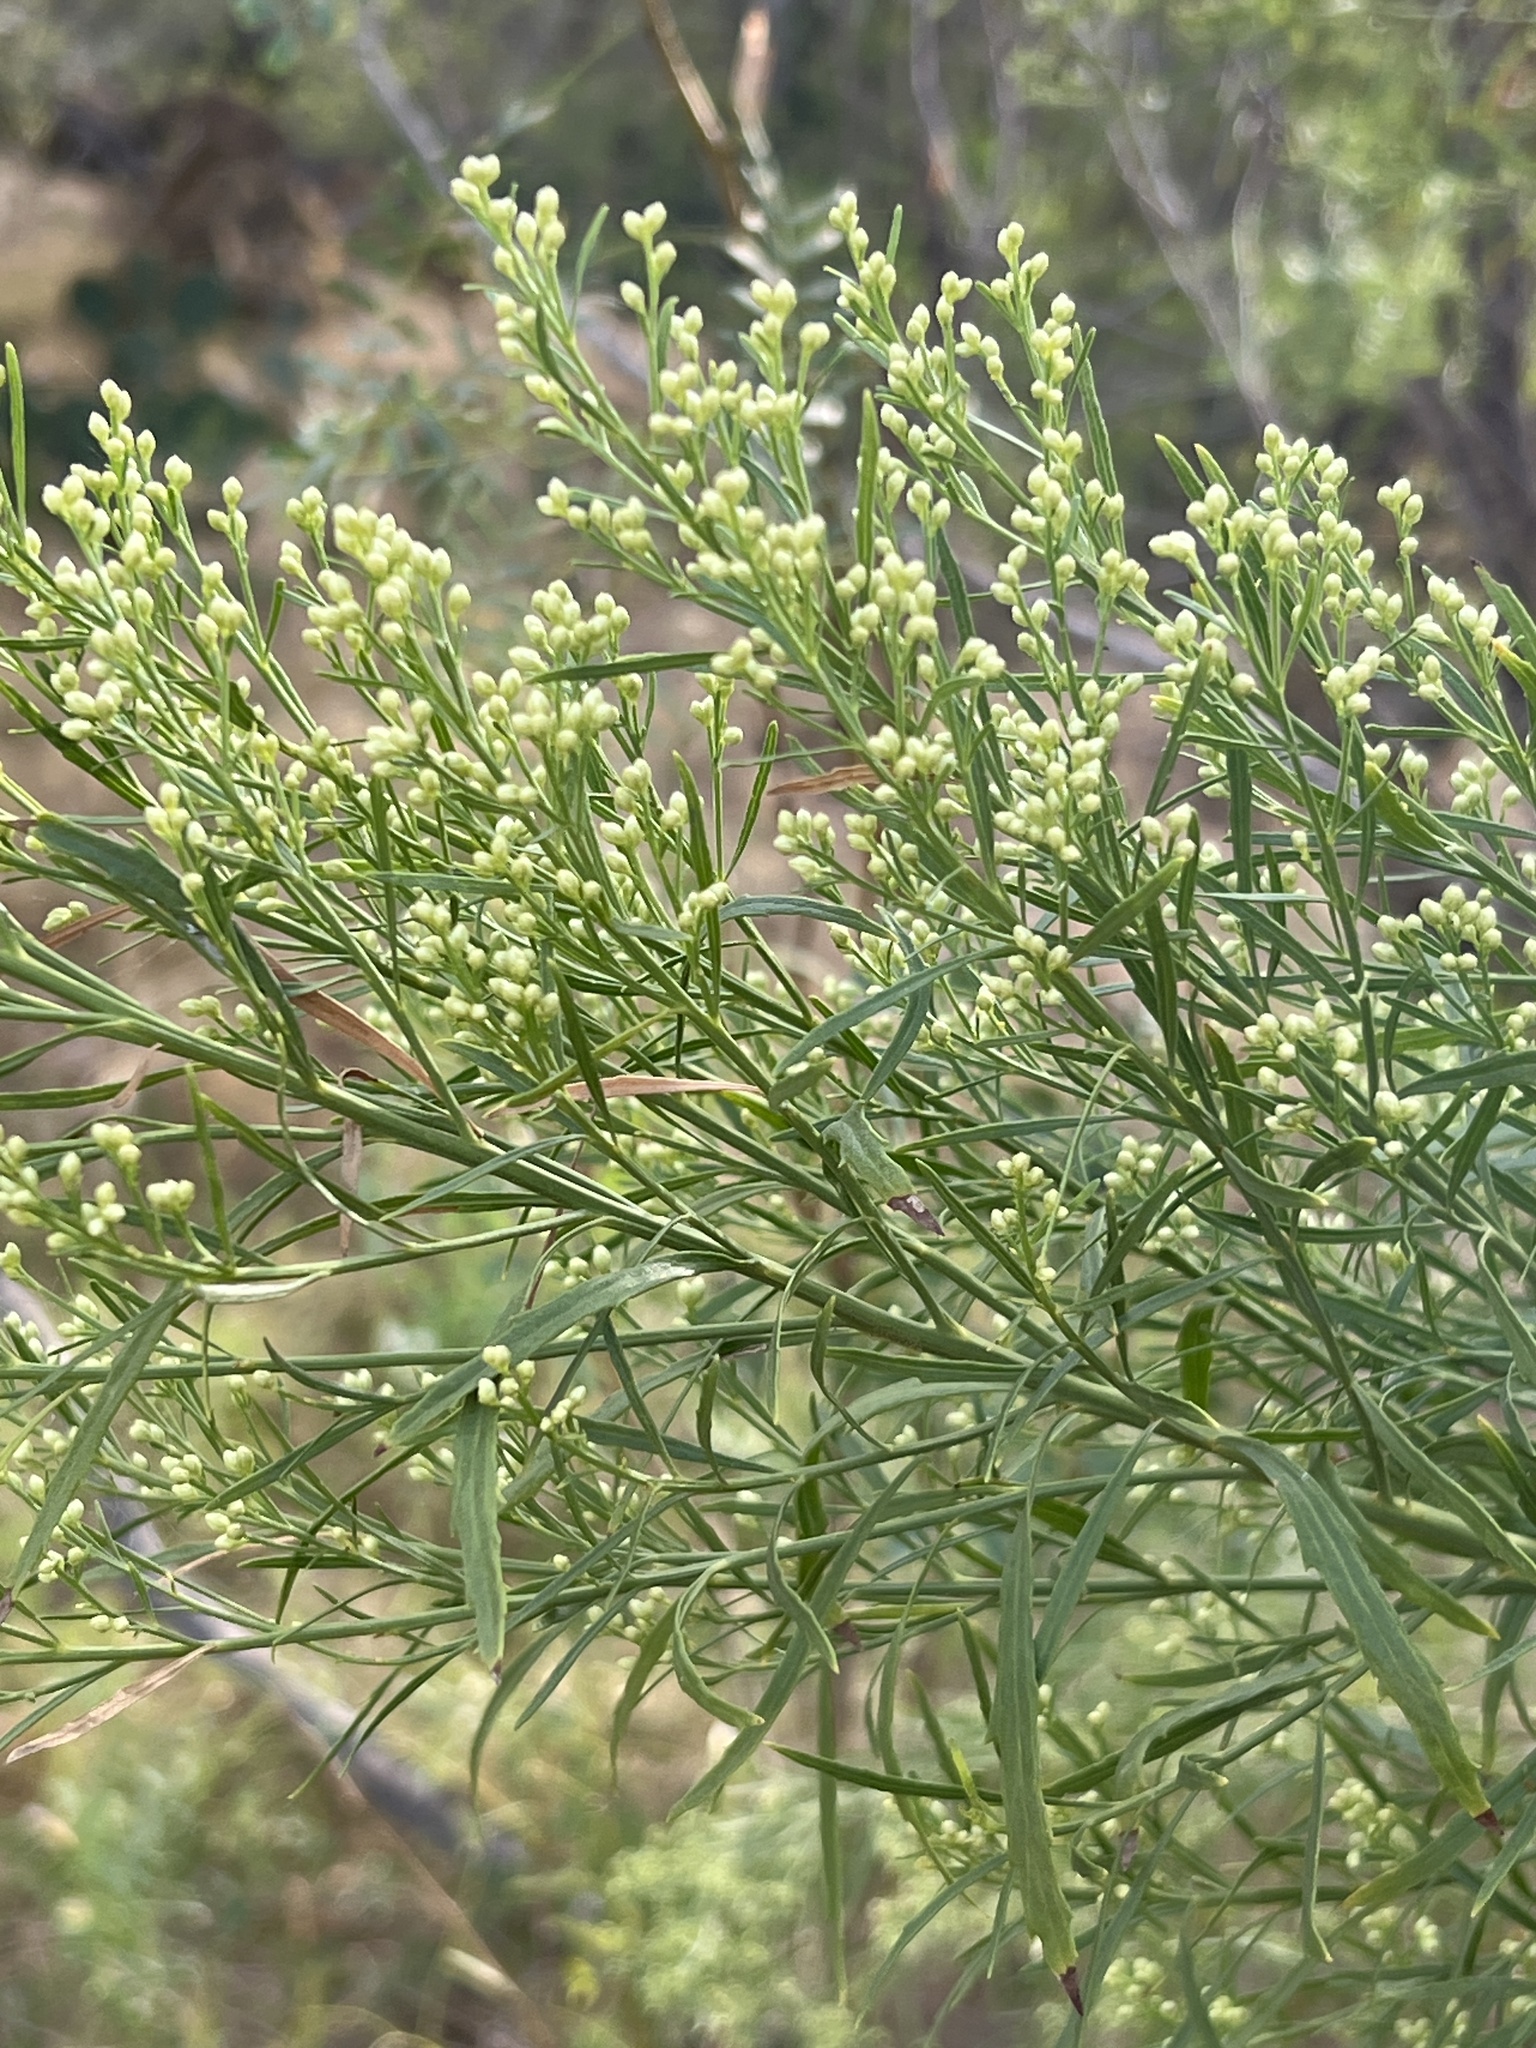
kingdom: Plantae
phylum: Tracheophyta
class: Magnoliopsida
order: Asterales
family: Asteraceae
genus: Baccharis
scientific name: Baccharis neglecta
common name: Roosevelt-weed
